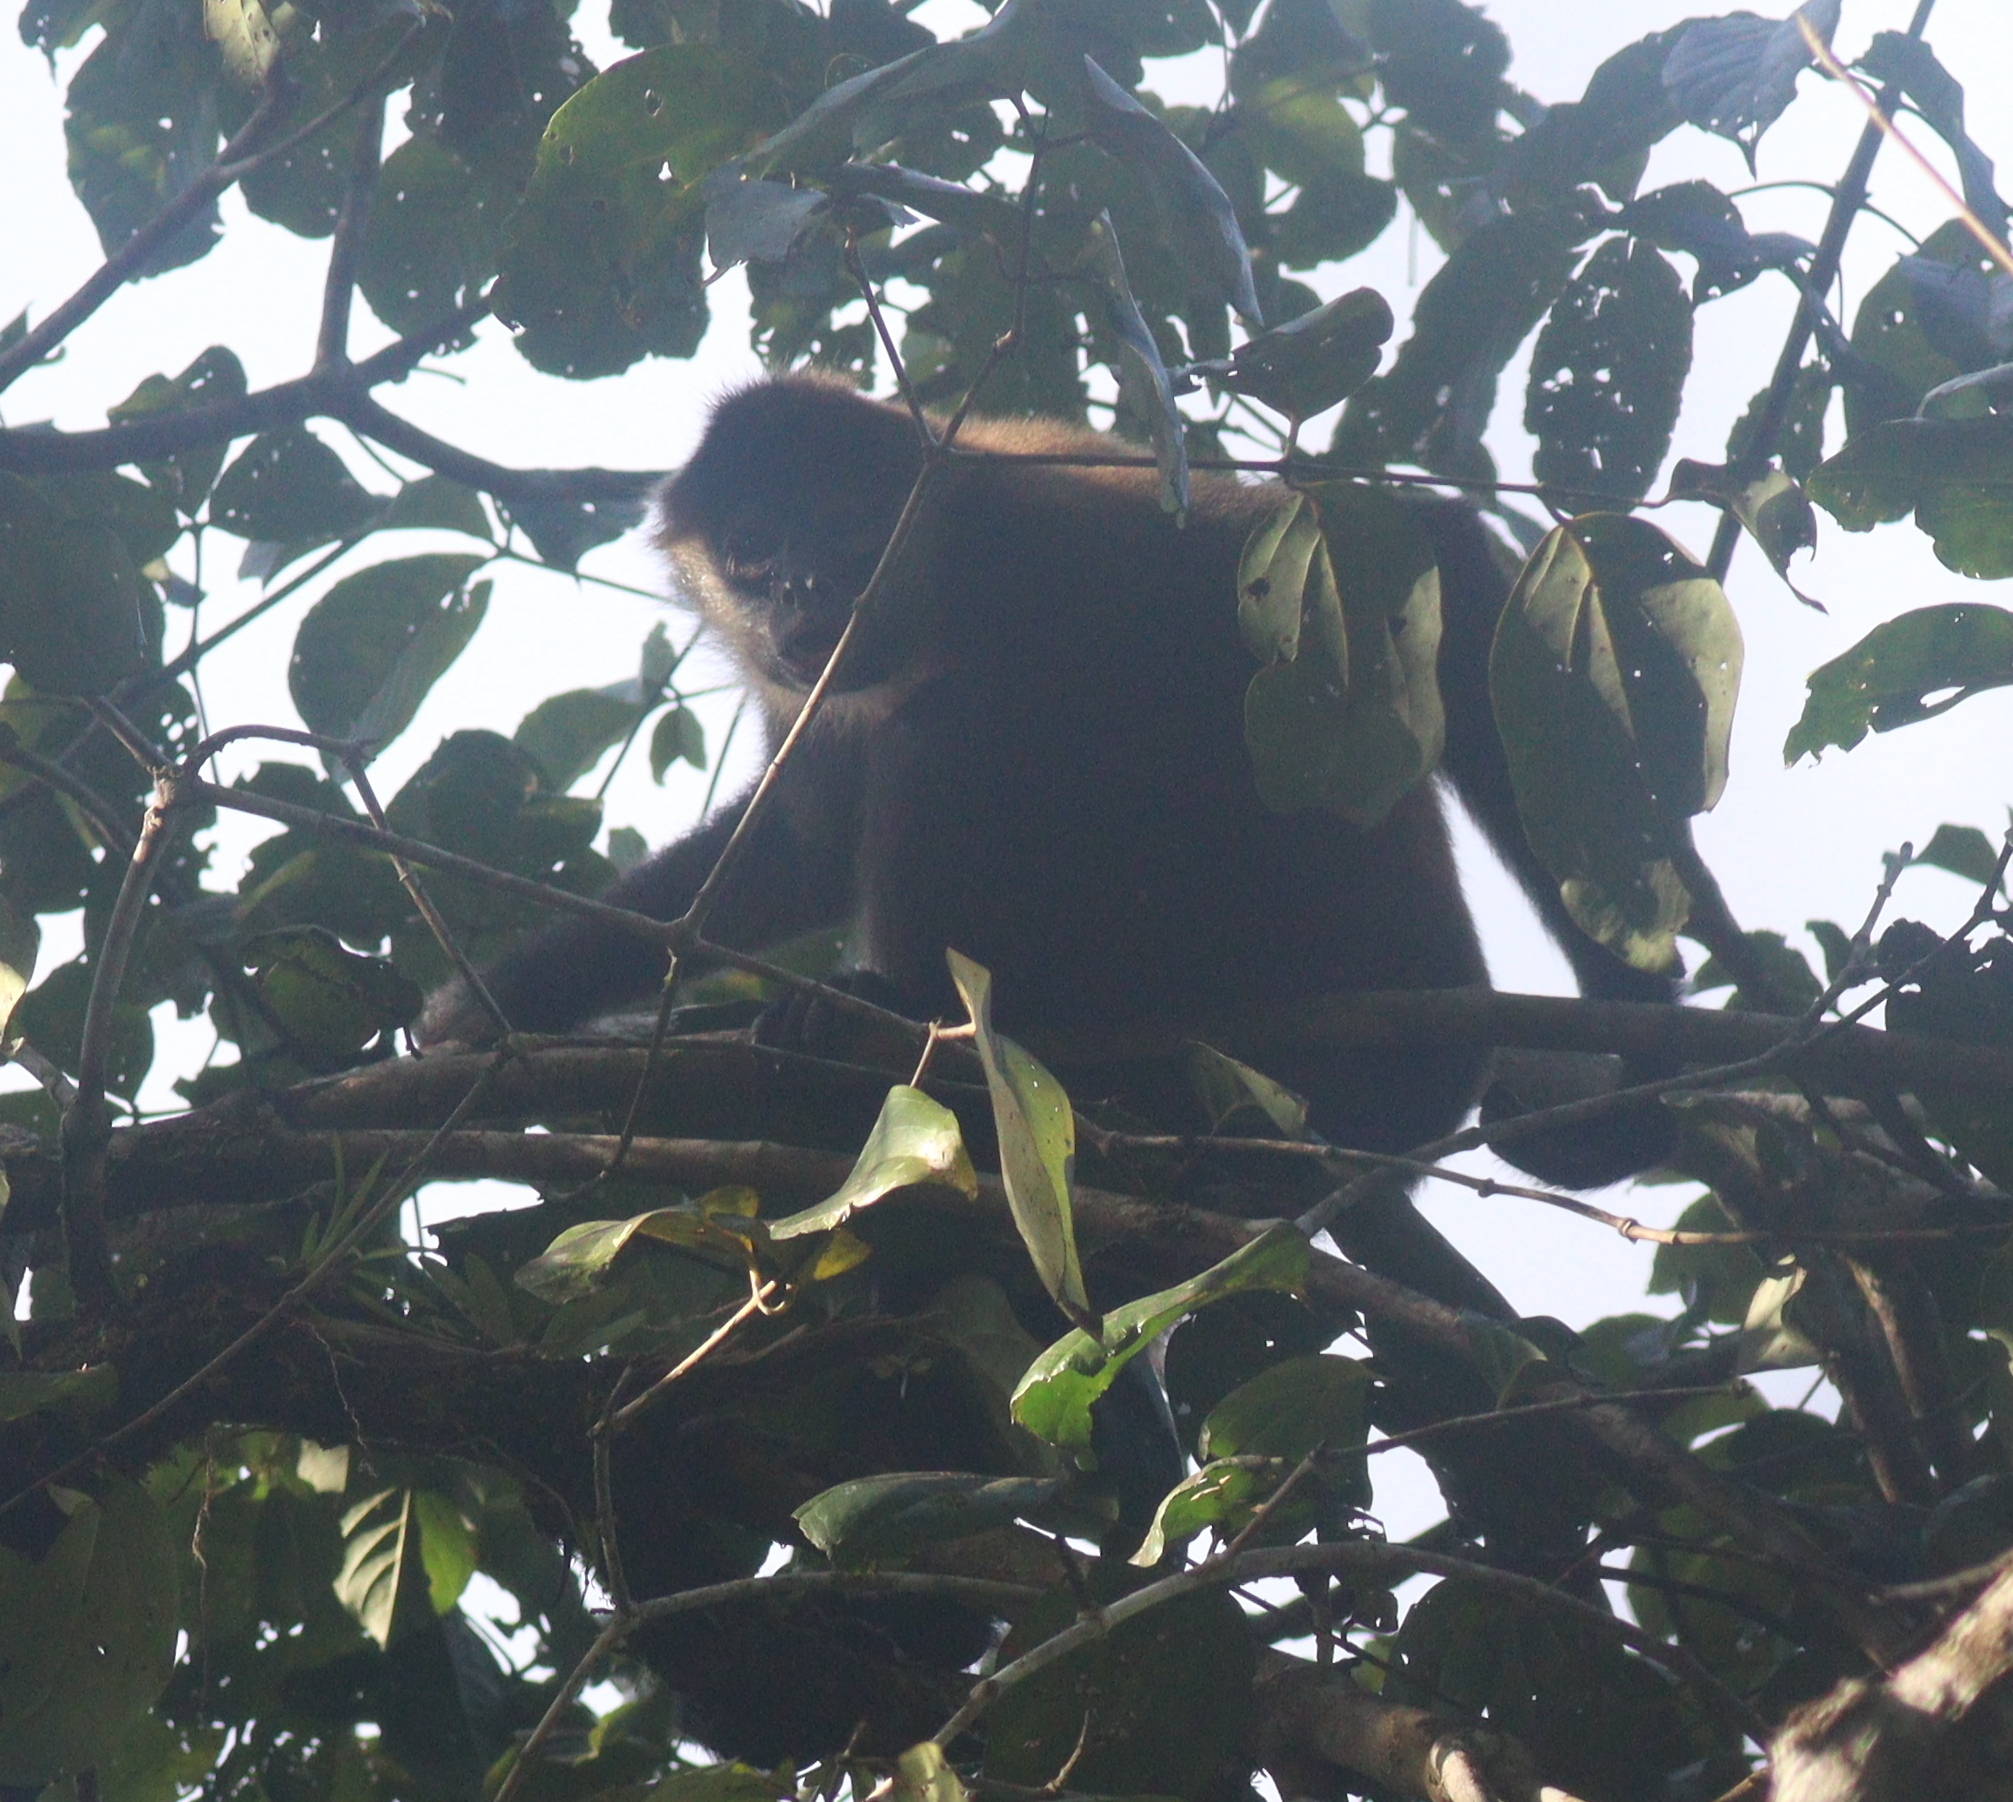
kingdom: Animalia
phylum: Chordata
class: Mammalia
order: Primates
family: Atelidae
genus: Ateles
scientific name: Ateles geoffroyi
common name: Black-handed spider monkey
